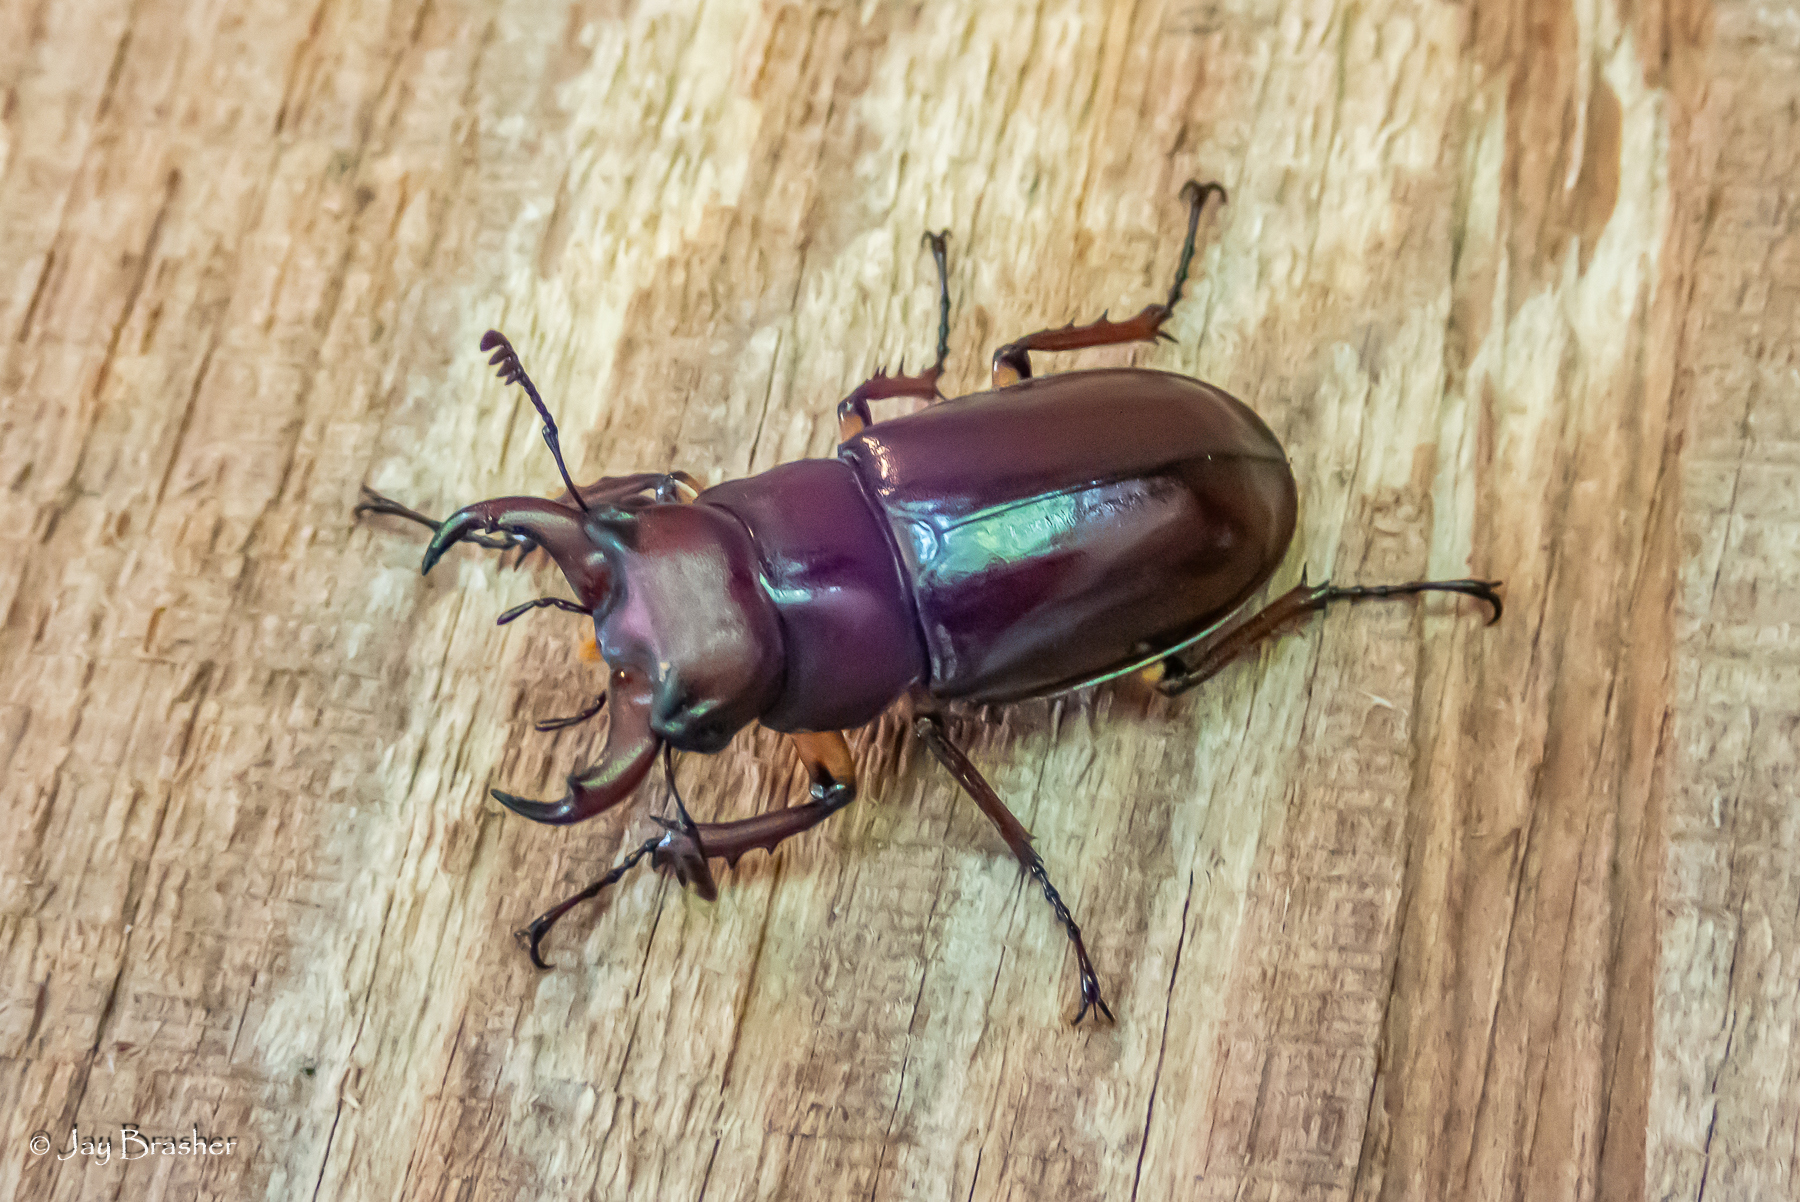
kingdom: Animalia
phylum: Arthropoda
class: Insecta
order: Coleoptera
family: Lucanidae
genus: Lucanus
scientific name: Lucanus capreolus
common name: Stag beetle
